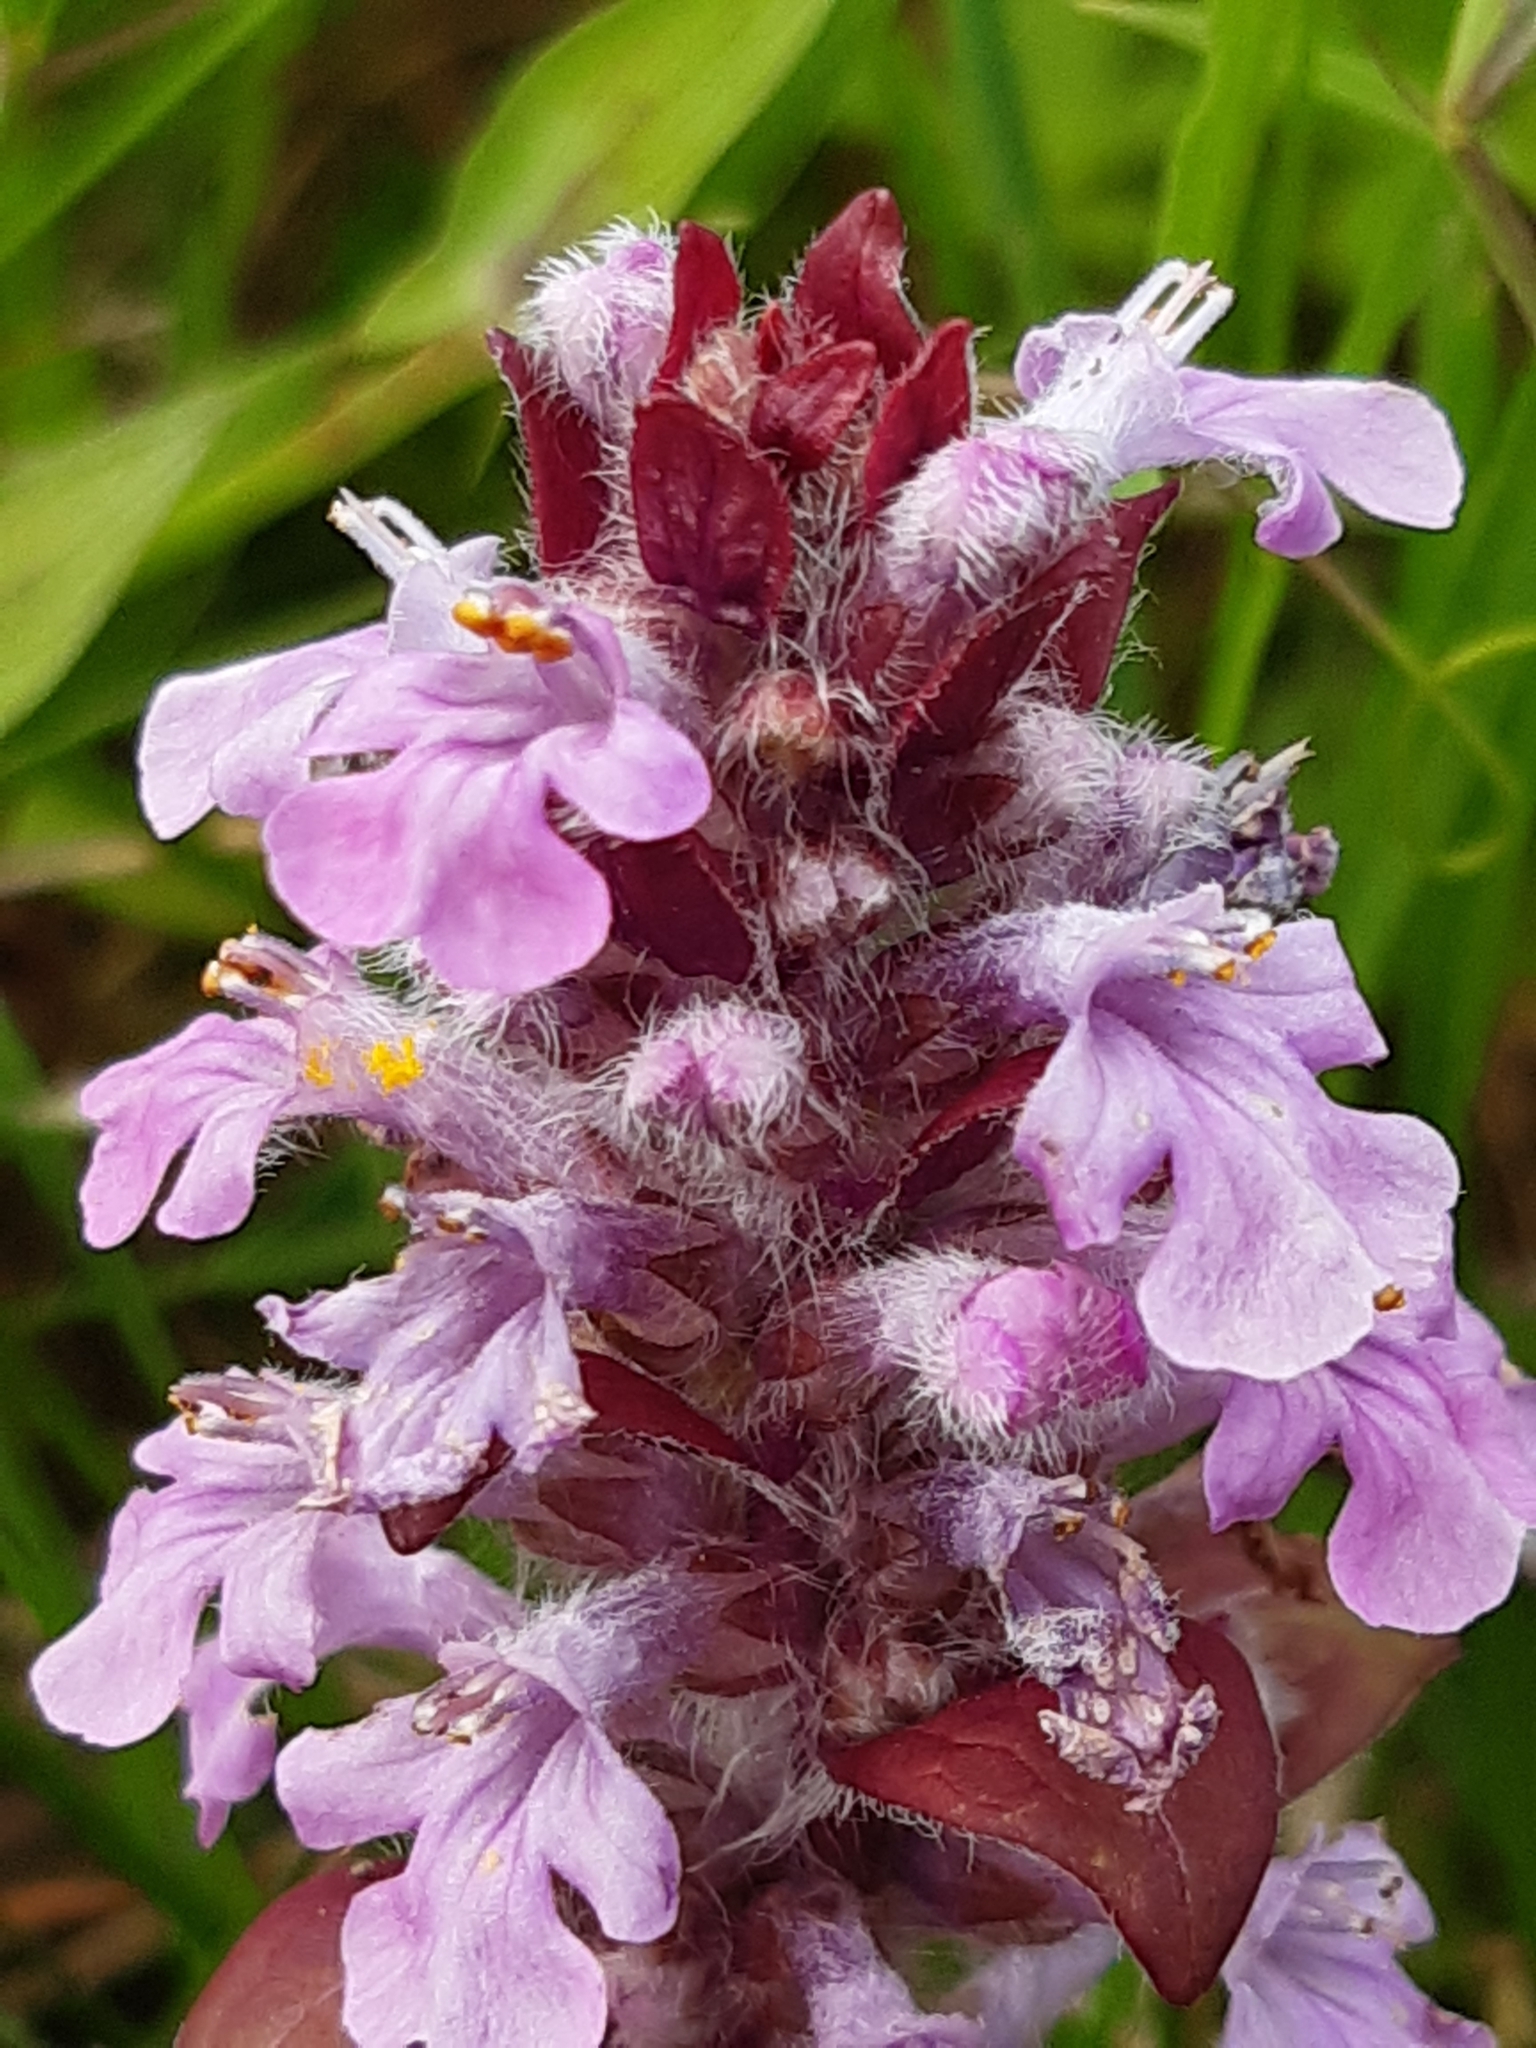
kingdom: Plantae
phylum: Tracheophyta
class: Magnoliopsida
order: Lamiales
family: Lamiaceae
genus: Ajuga
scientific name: Ajuga reptans
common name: Bugle
